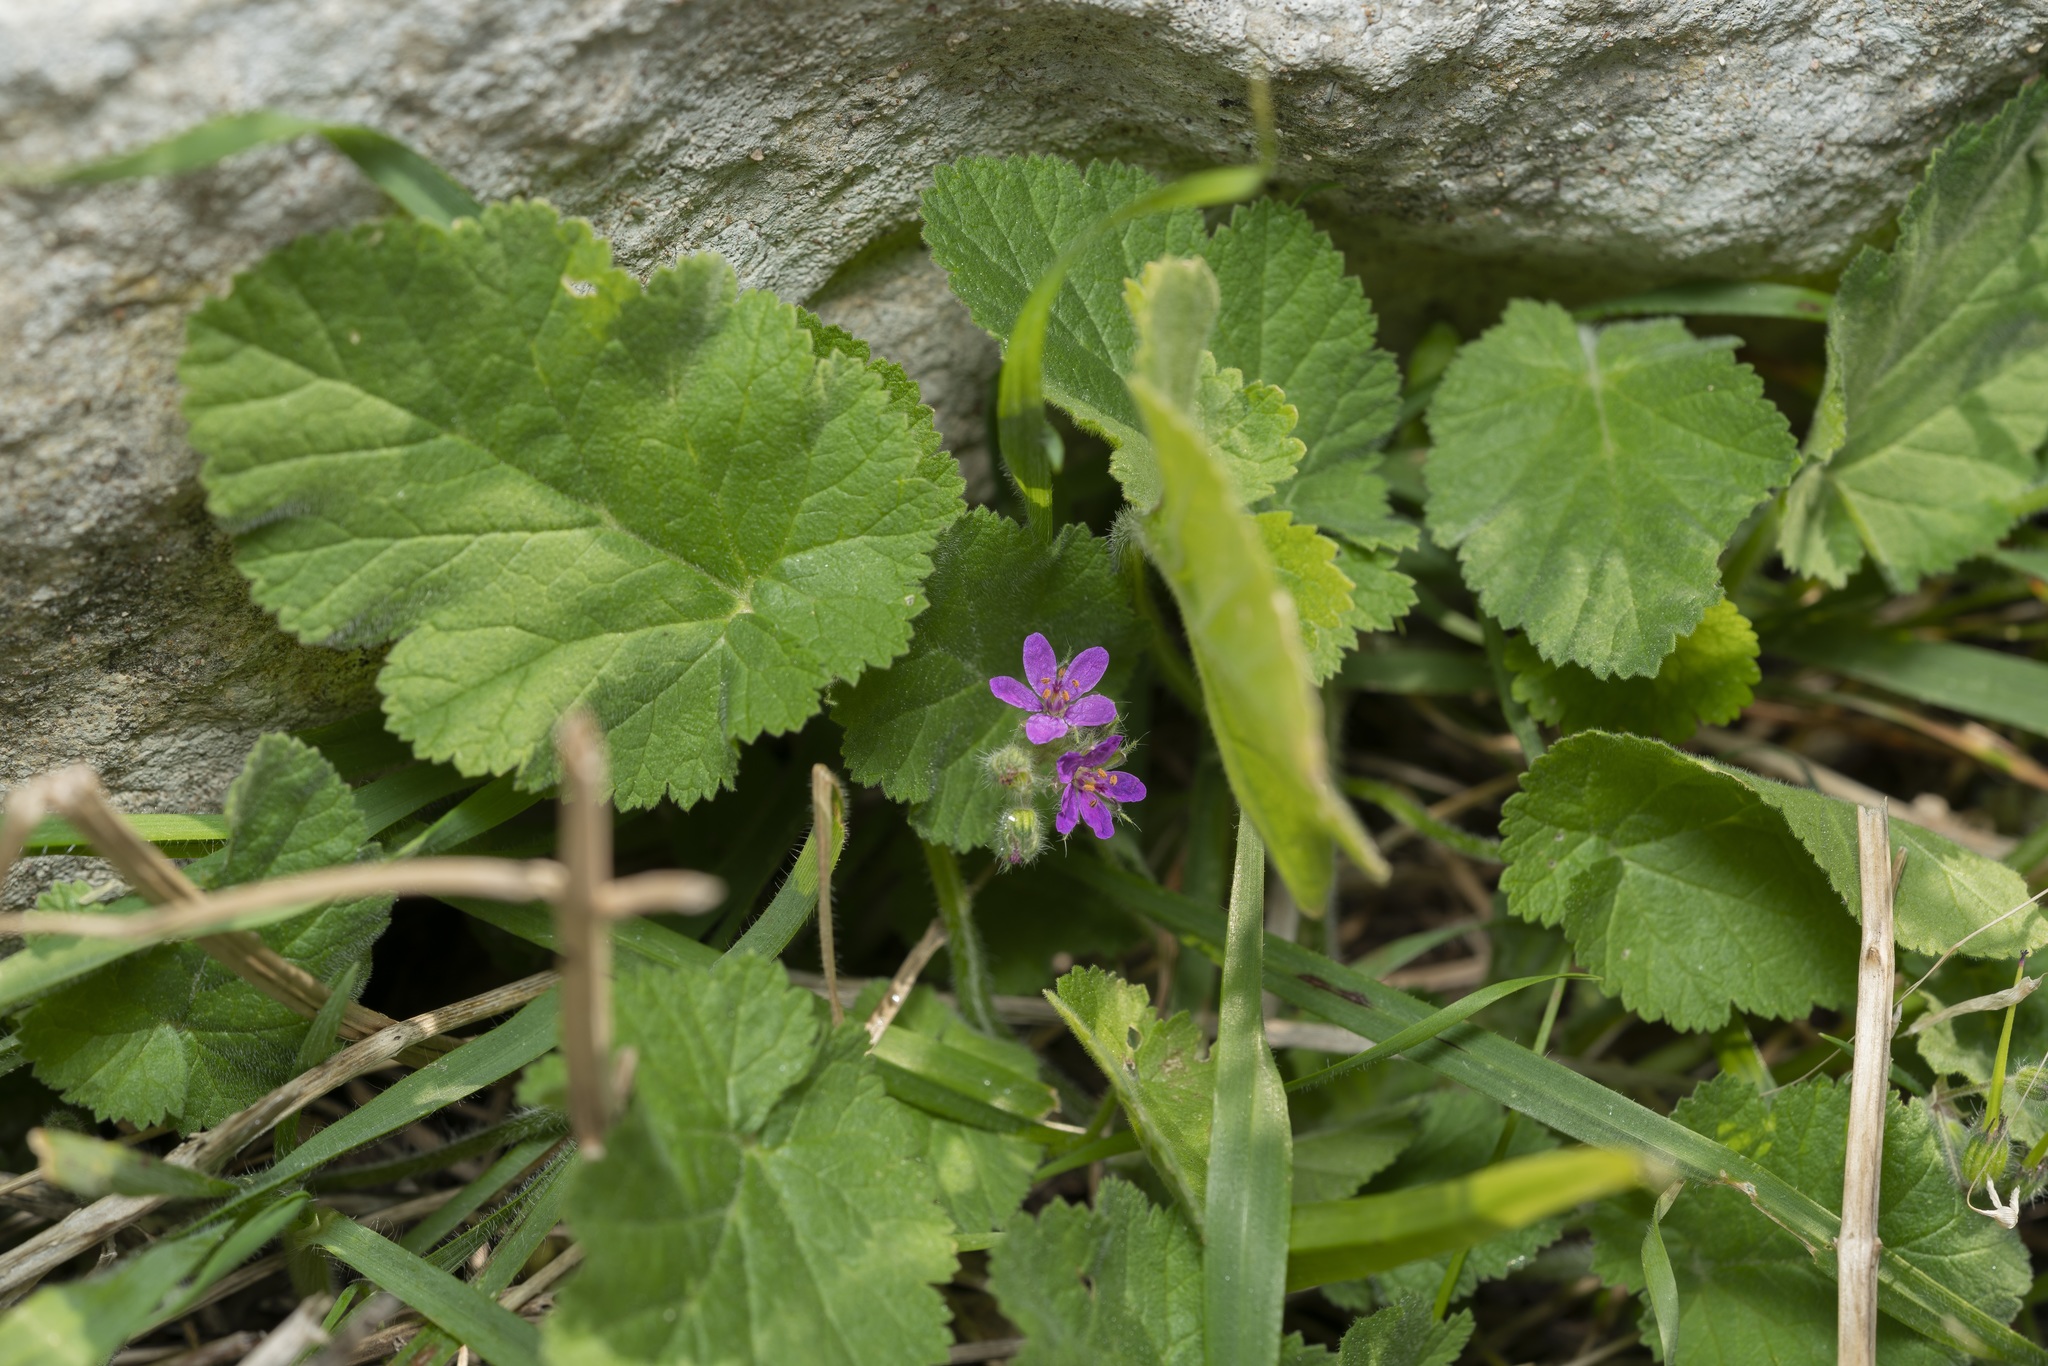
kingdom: Plantae
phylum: Tracheophyta
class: Magnoliopsida
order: Geraniales
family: Geraniaceae
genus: Erodium
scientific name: Erodium malacoides
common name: Soft stork's-bill
